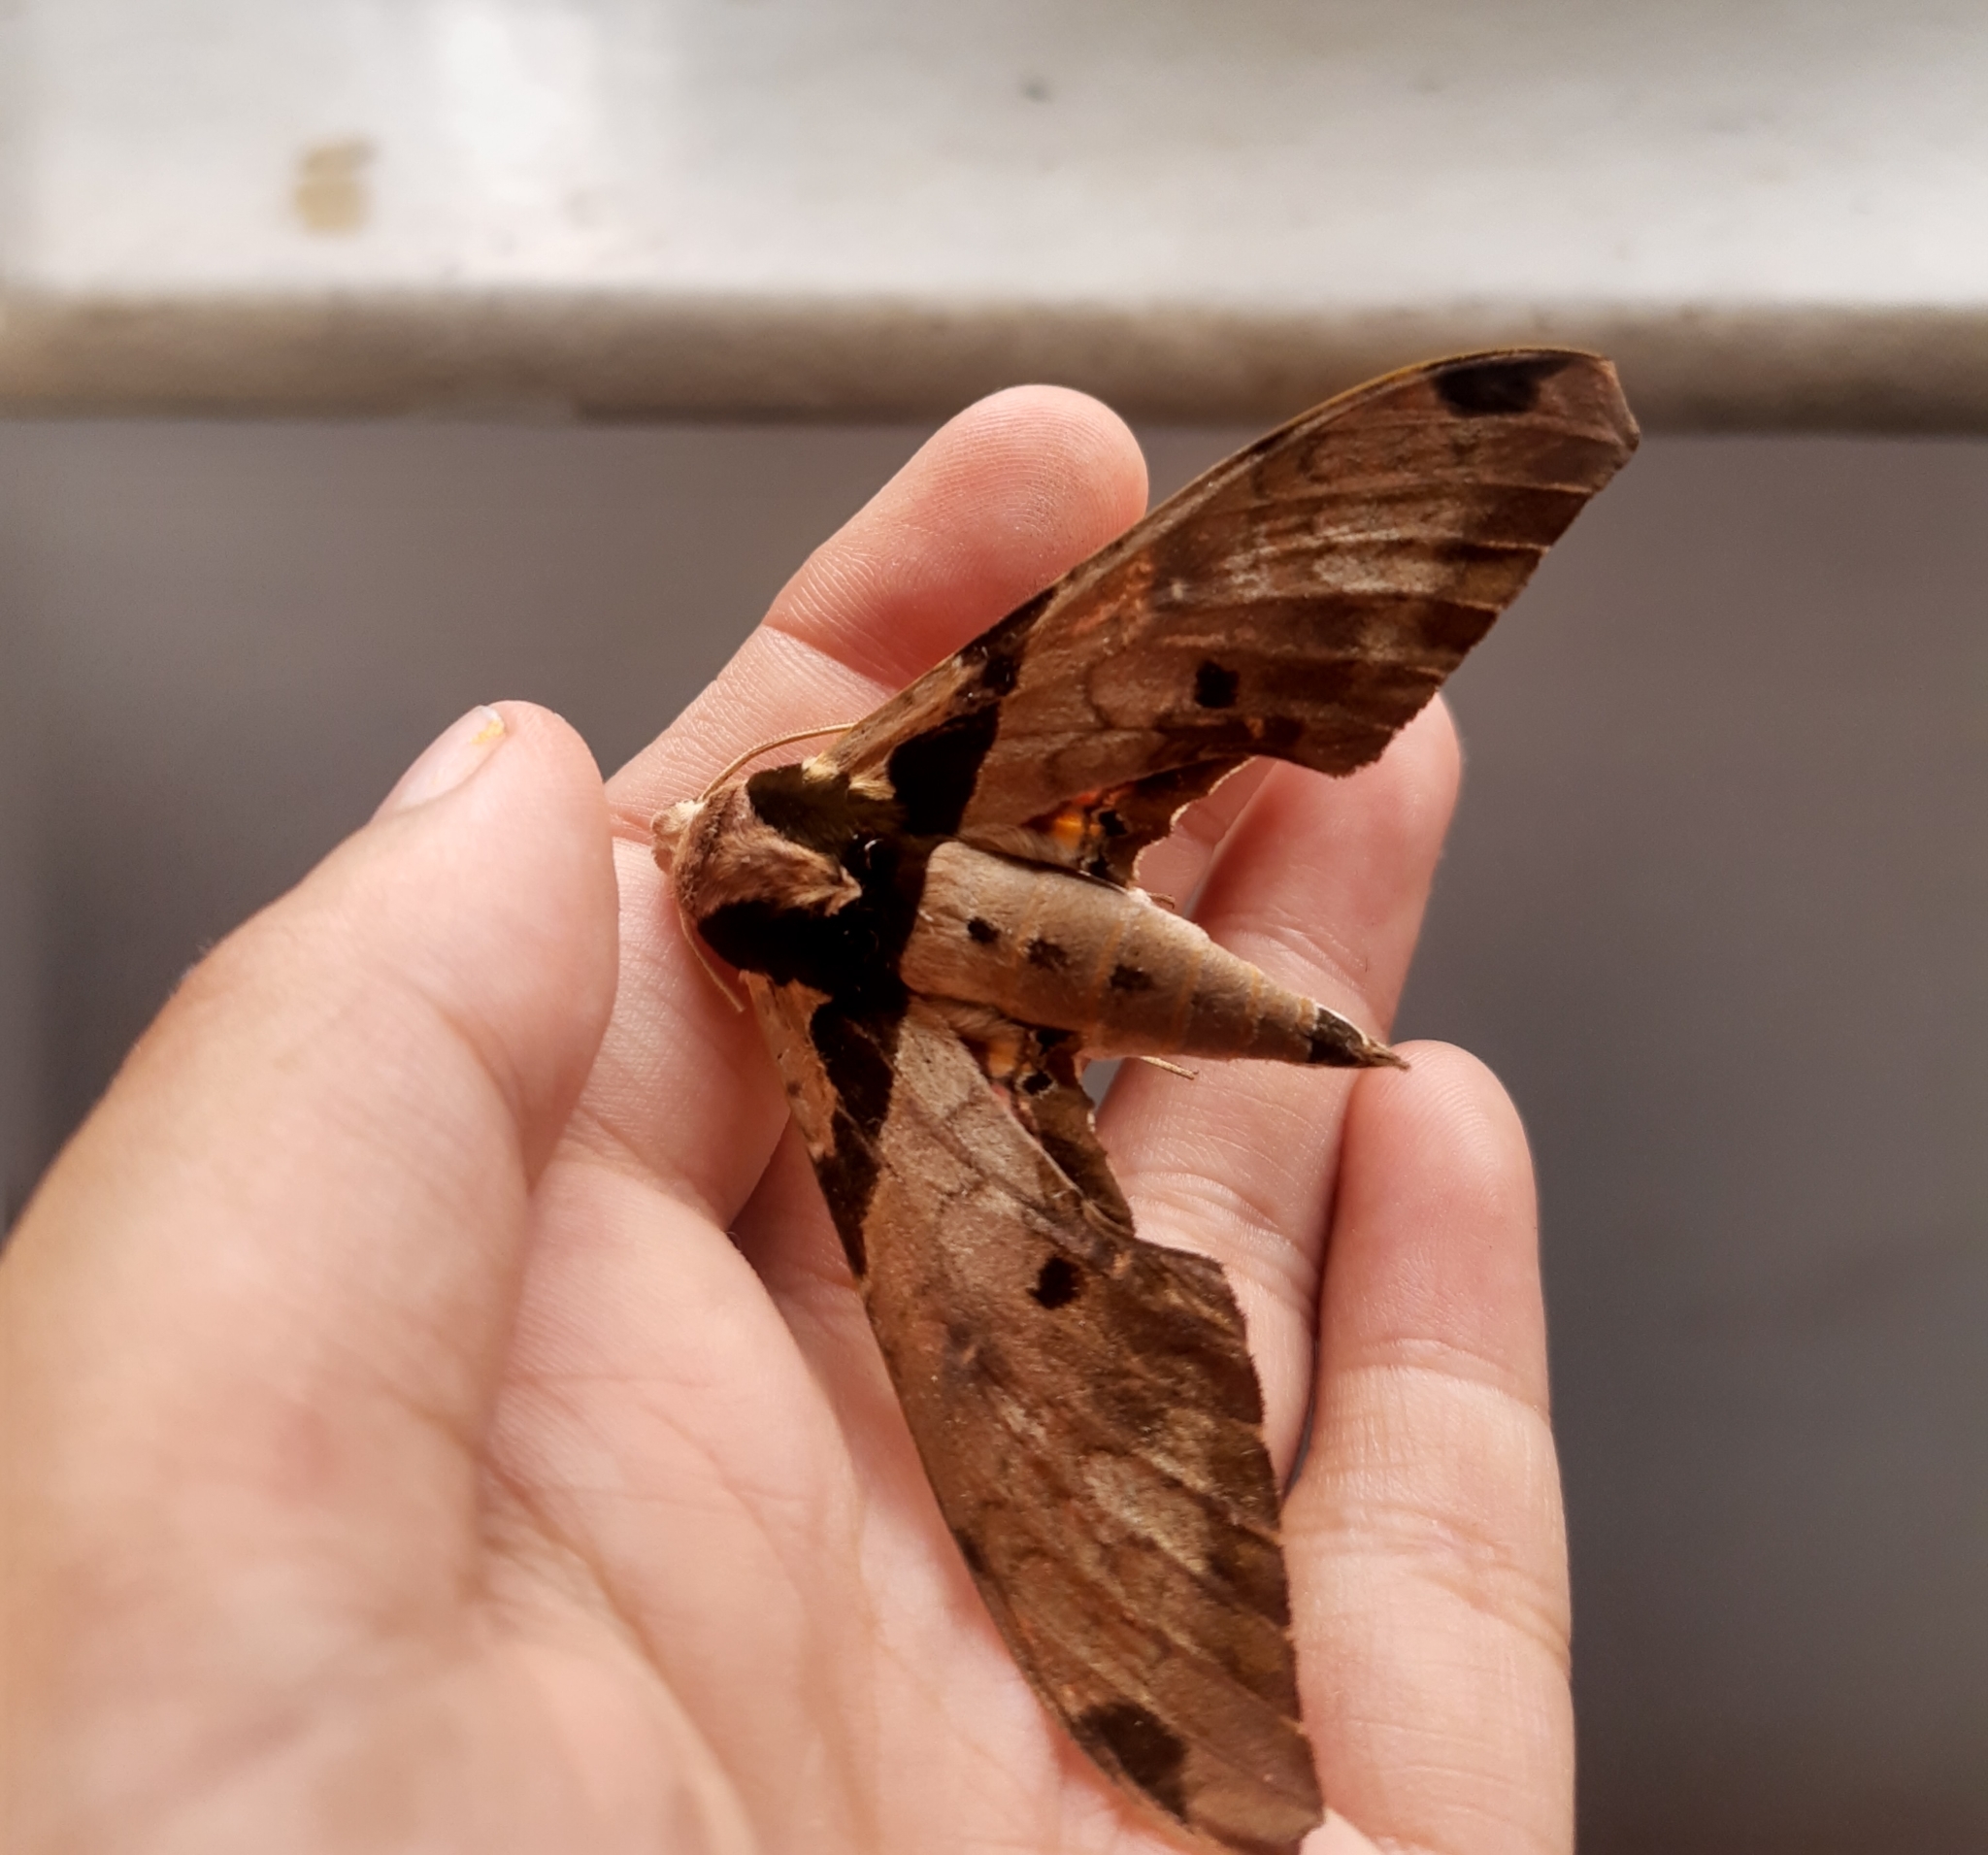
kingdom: Animalia
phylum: Arthropoda
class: Insecta
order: Lepidoptera
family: Sphingidae
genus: Adhemarius
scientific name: Adhemarius eurysthenes
